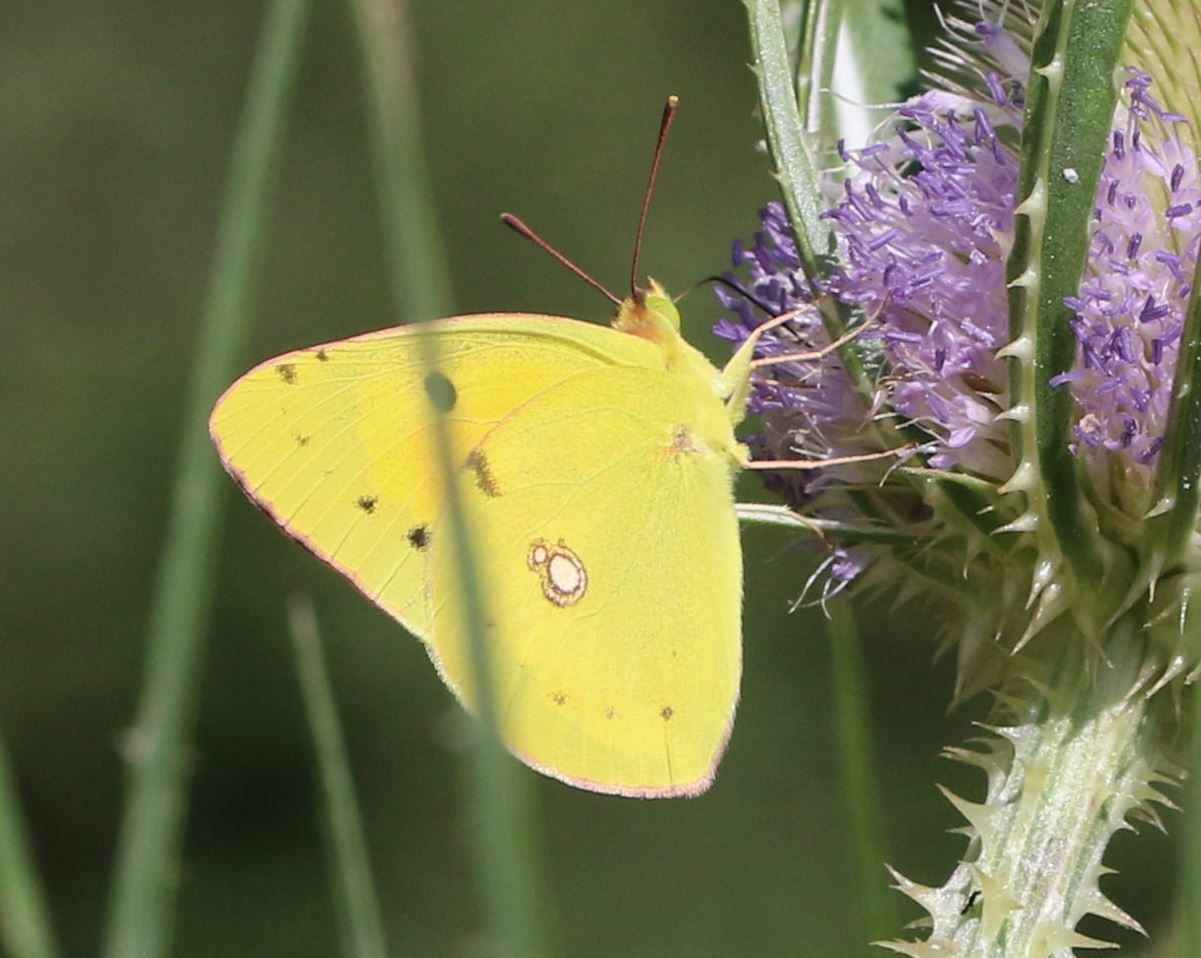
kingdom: Animalia
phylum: Arthropoda
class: Insecta
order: Lepidoptera
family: Pieridae
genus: Colias
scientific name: Colias croceus
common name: Clouded yellow
